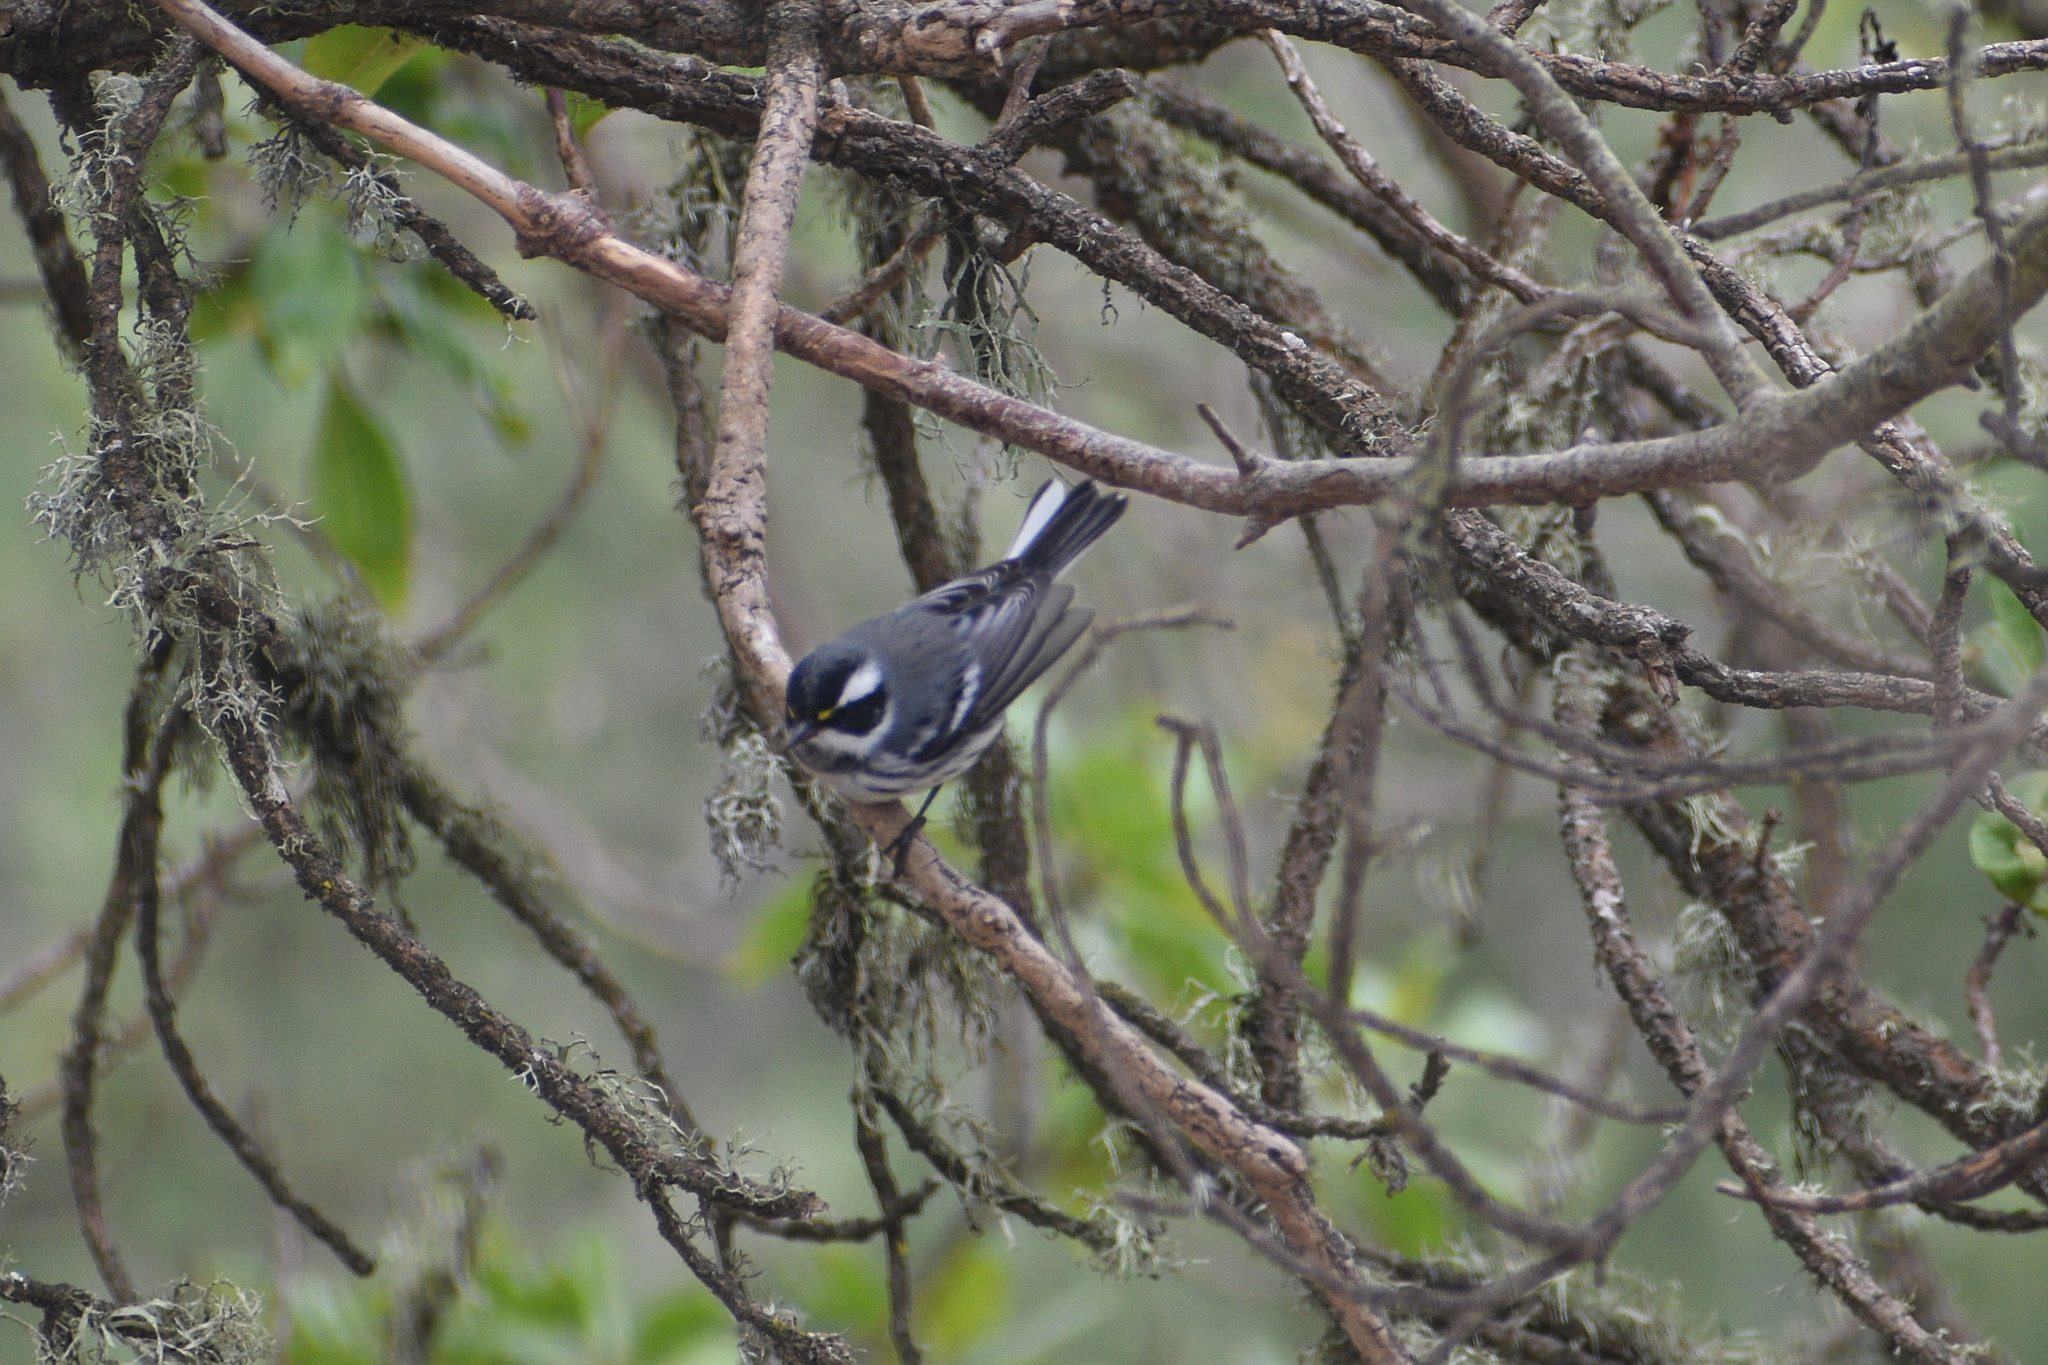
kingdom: Animalia
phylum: Chordata
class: Aves
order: Passeriformes
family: Parulidae
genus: Setophaga
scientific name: Setophaga nigrescens
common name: Black-throated gray warbler
